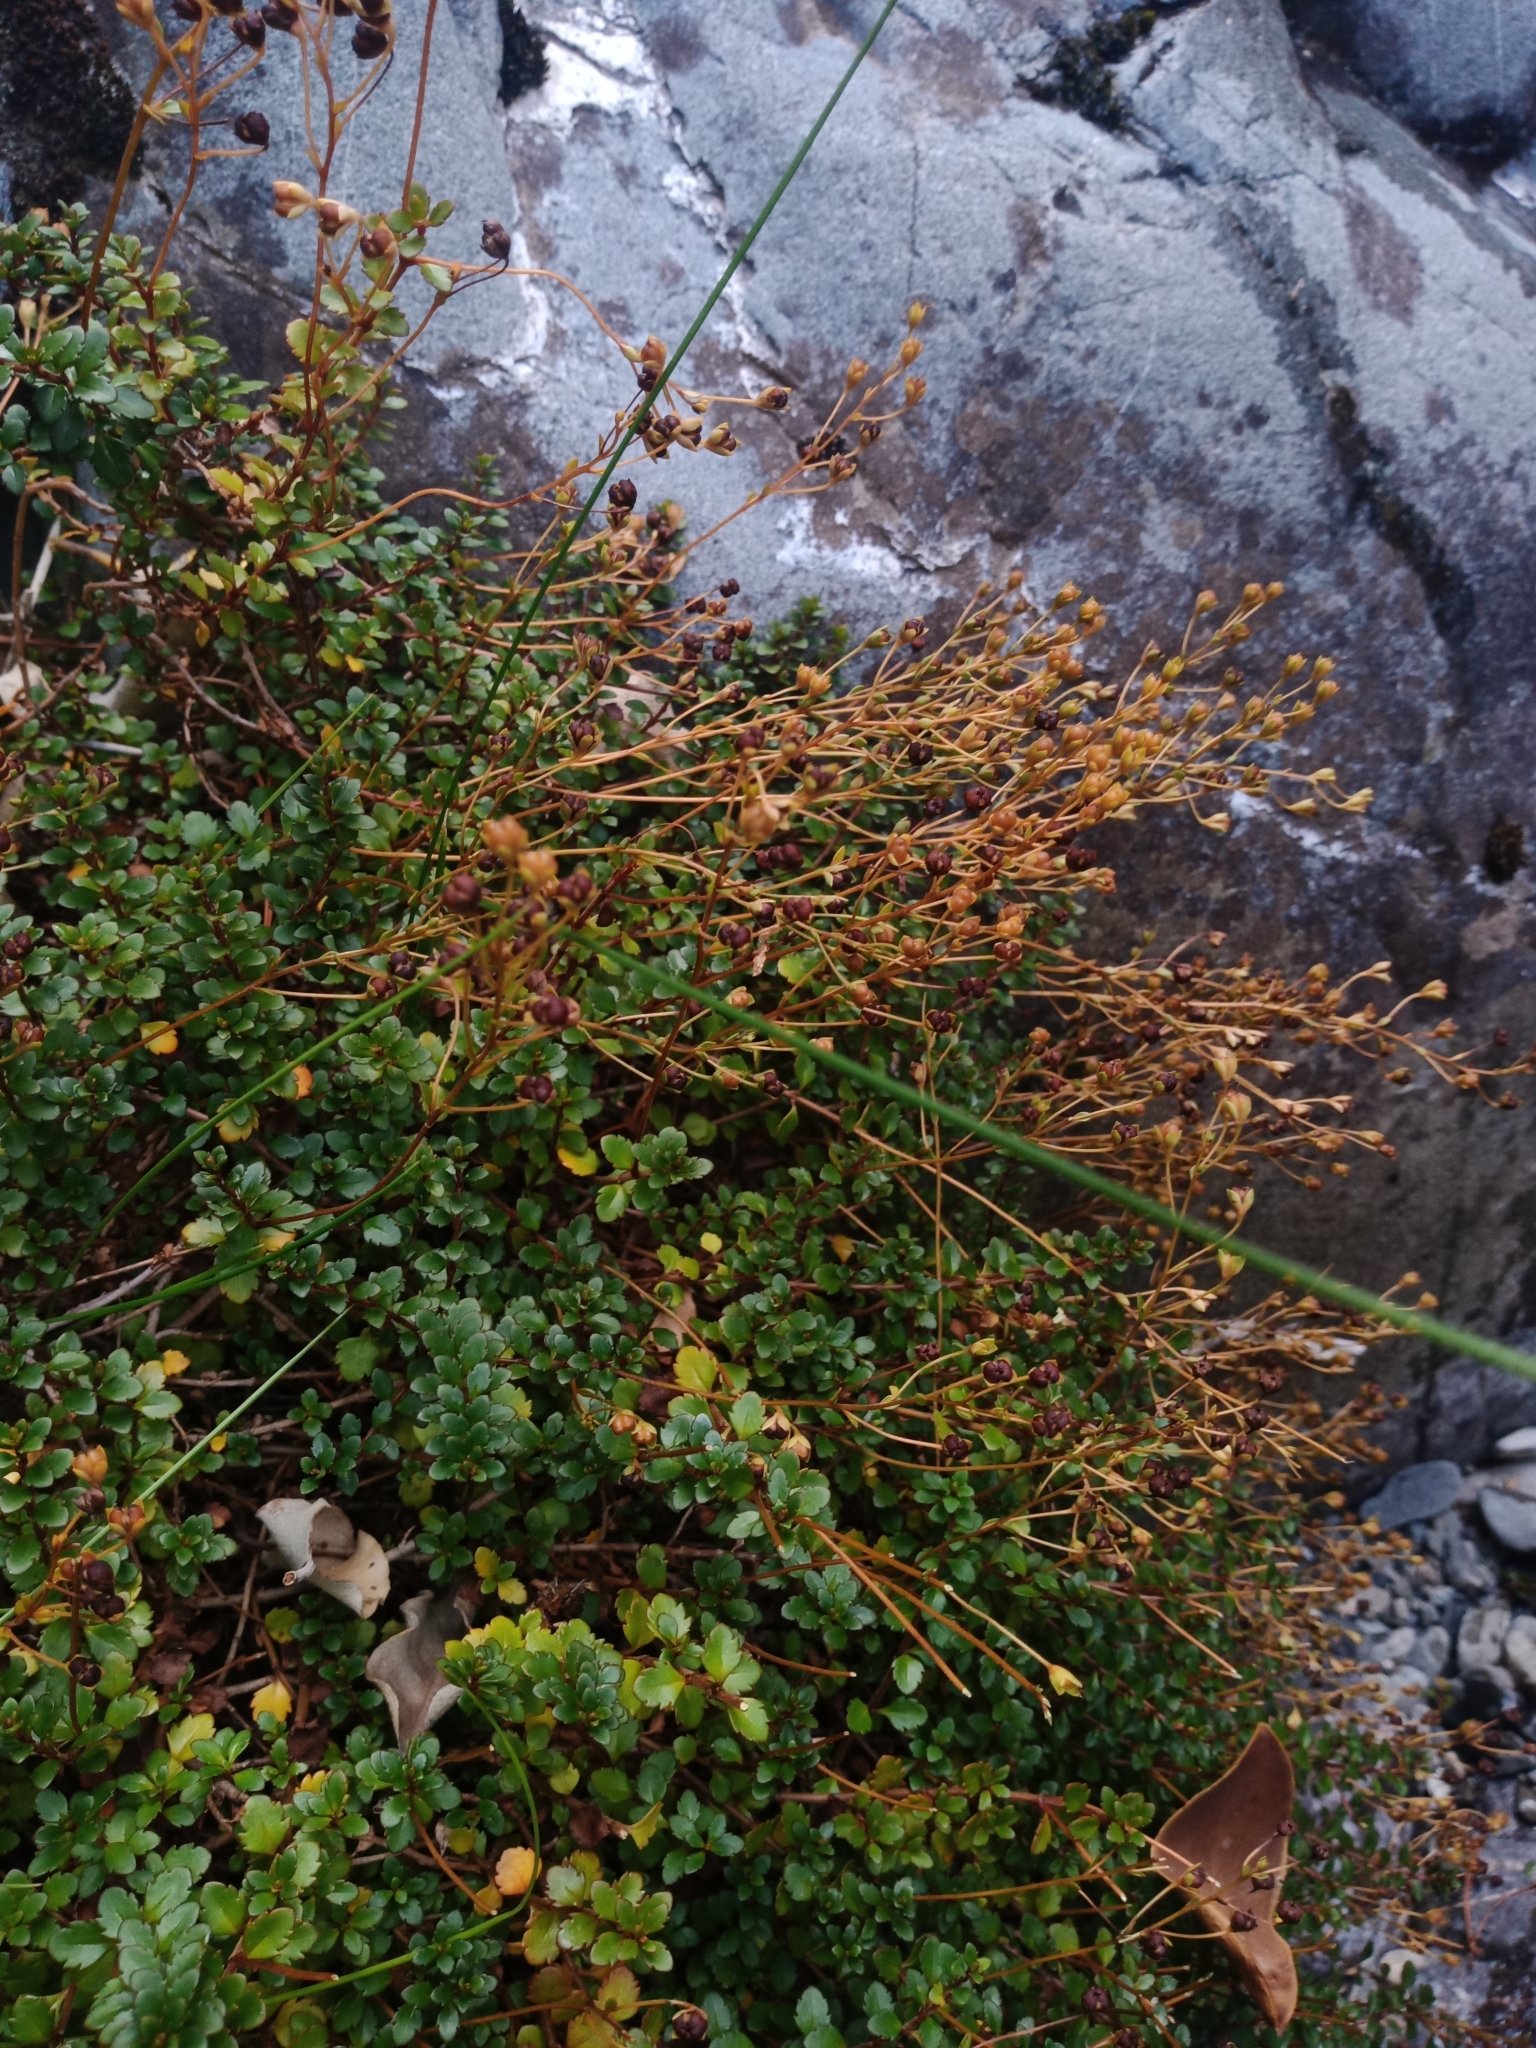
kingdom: Plantae
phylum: Tracheophyta
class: Magnoliopsida
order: Lamiales
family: Plantaginaceae
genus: Veronica
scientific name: Veronica lyallii
